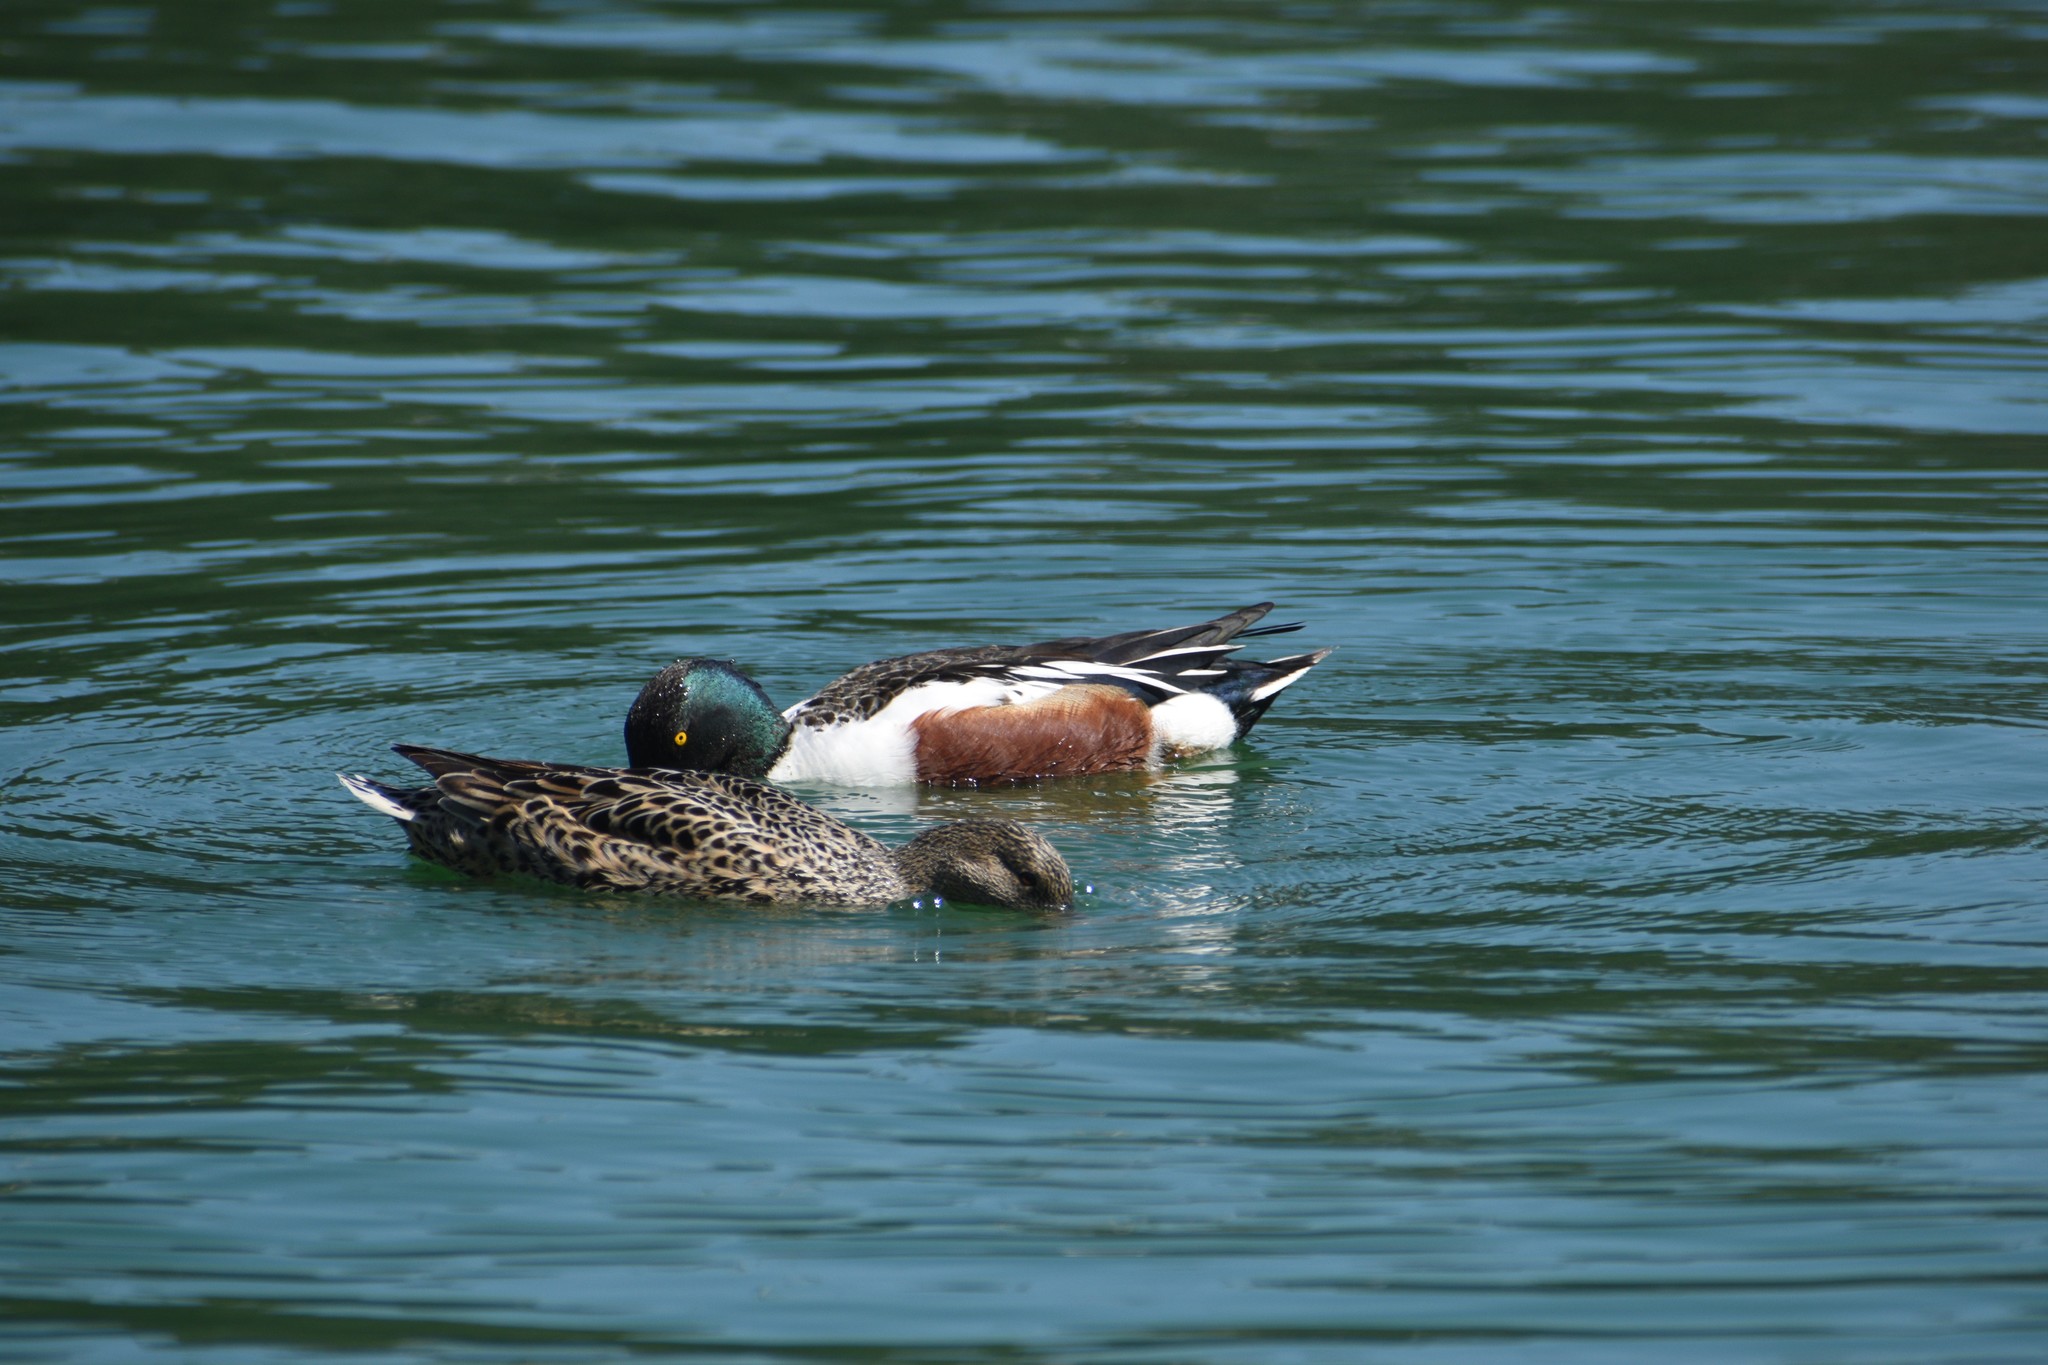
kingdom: Animalia
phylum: Chordata
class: Aves
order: Anseriformes
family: Anatidae
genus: Spatula
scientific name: Spatula clypeata
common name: Northern shoveler
